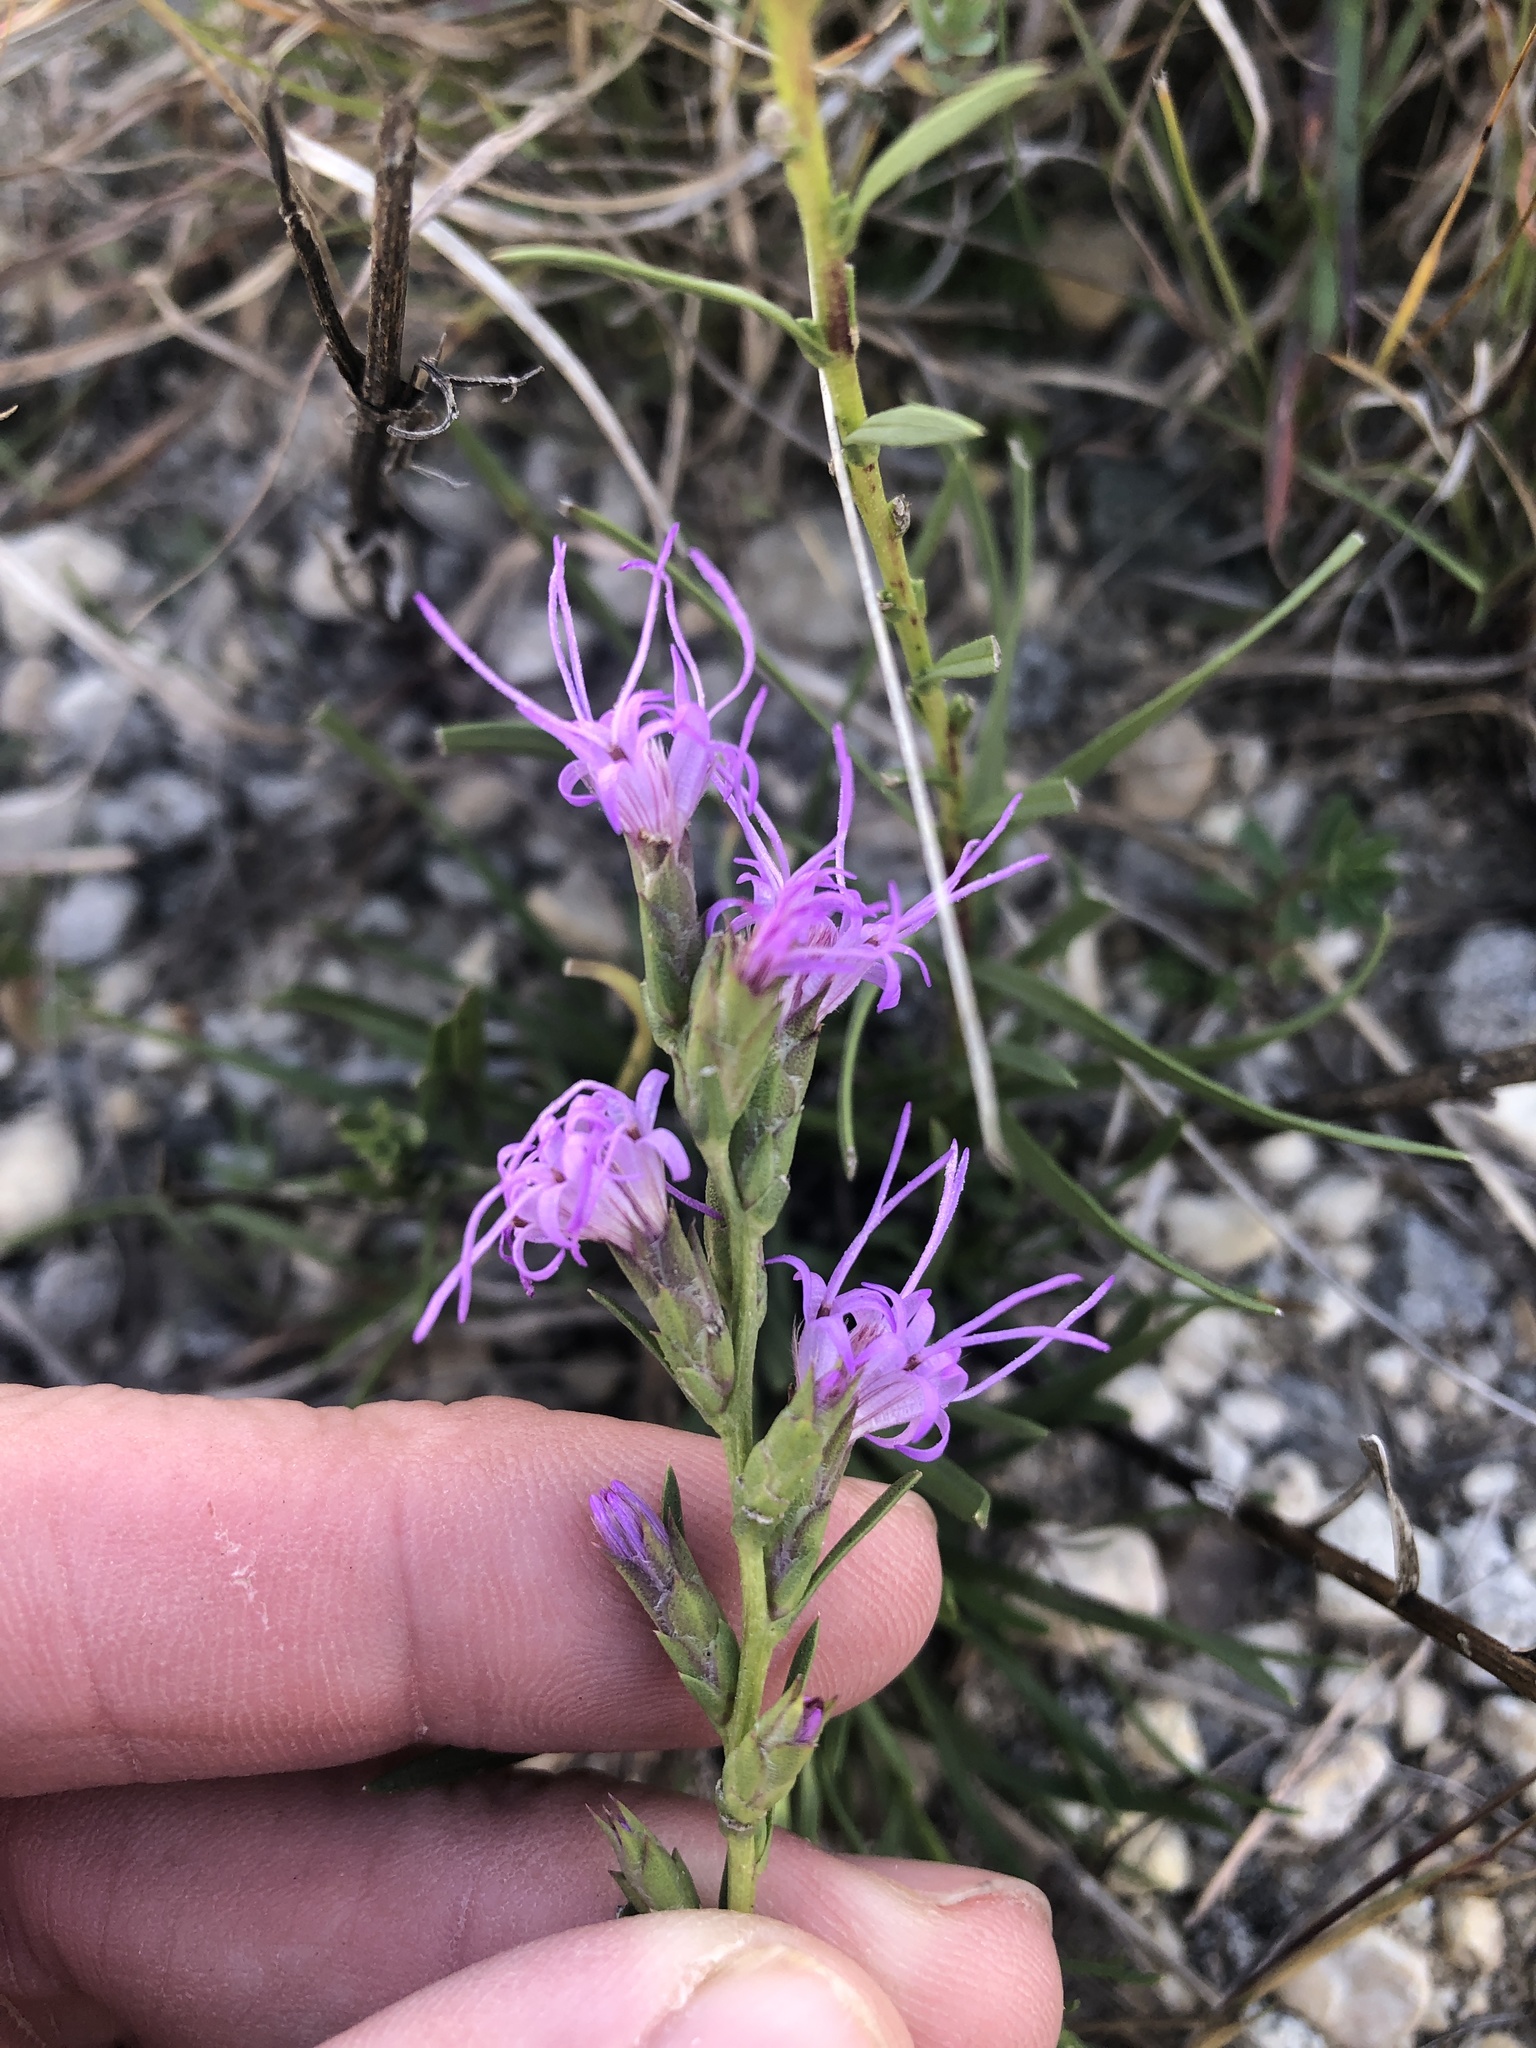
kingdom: Plantae
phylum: Tracheophyta
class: Magnoliopsida
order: Asterales
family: Asteraceae
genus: Liatris
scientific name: Liatris punctata
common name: Dotted gayfeather
